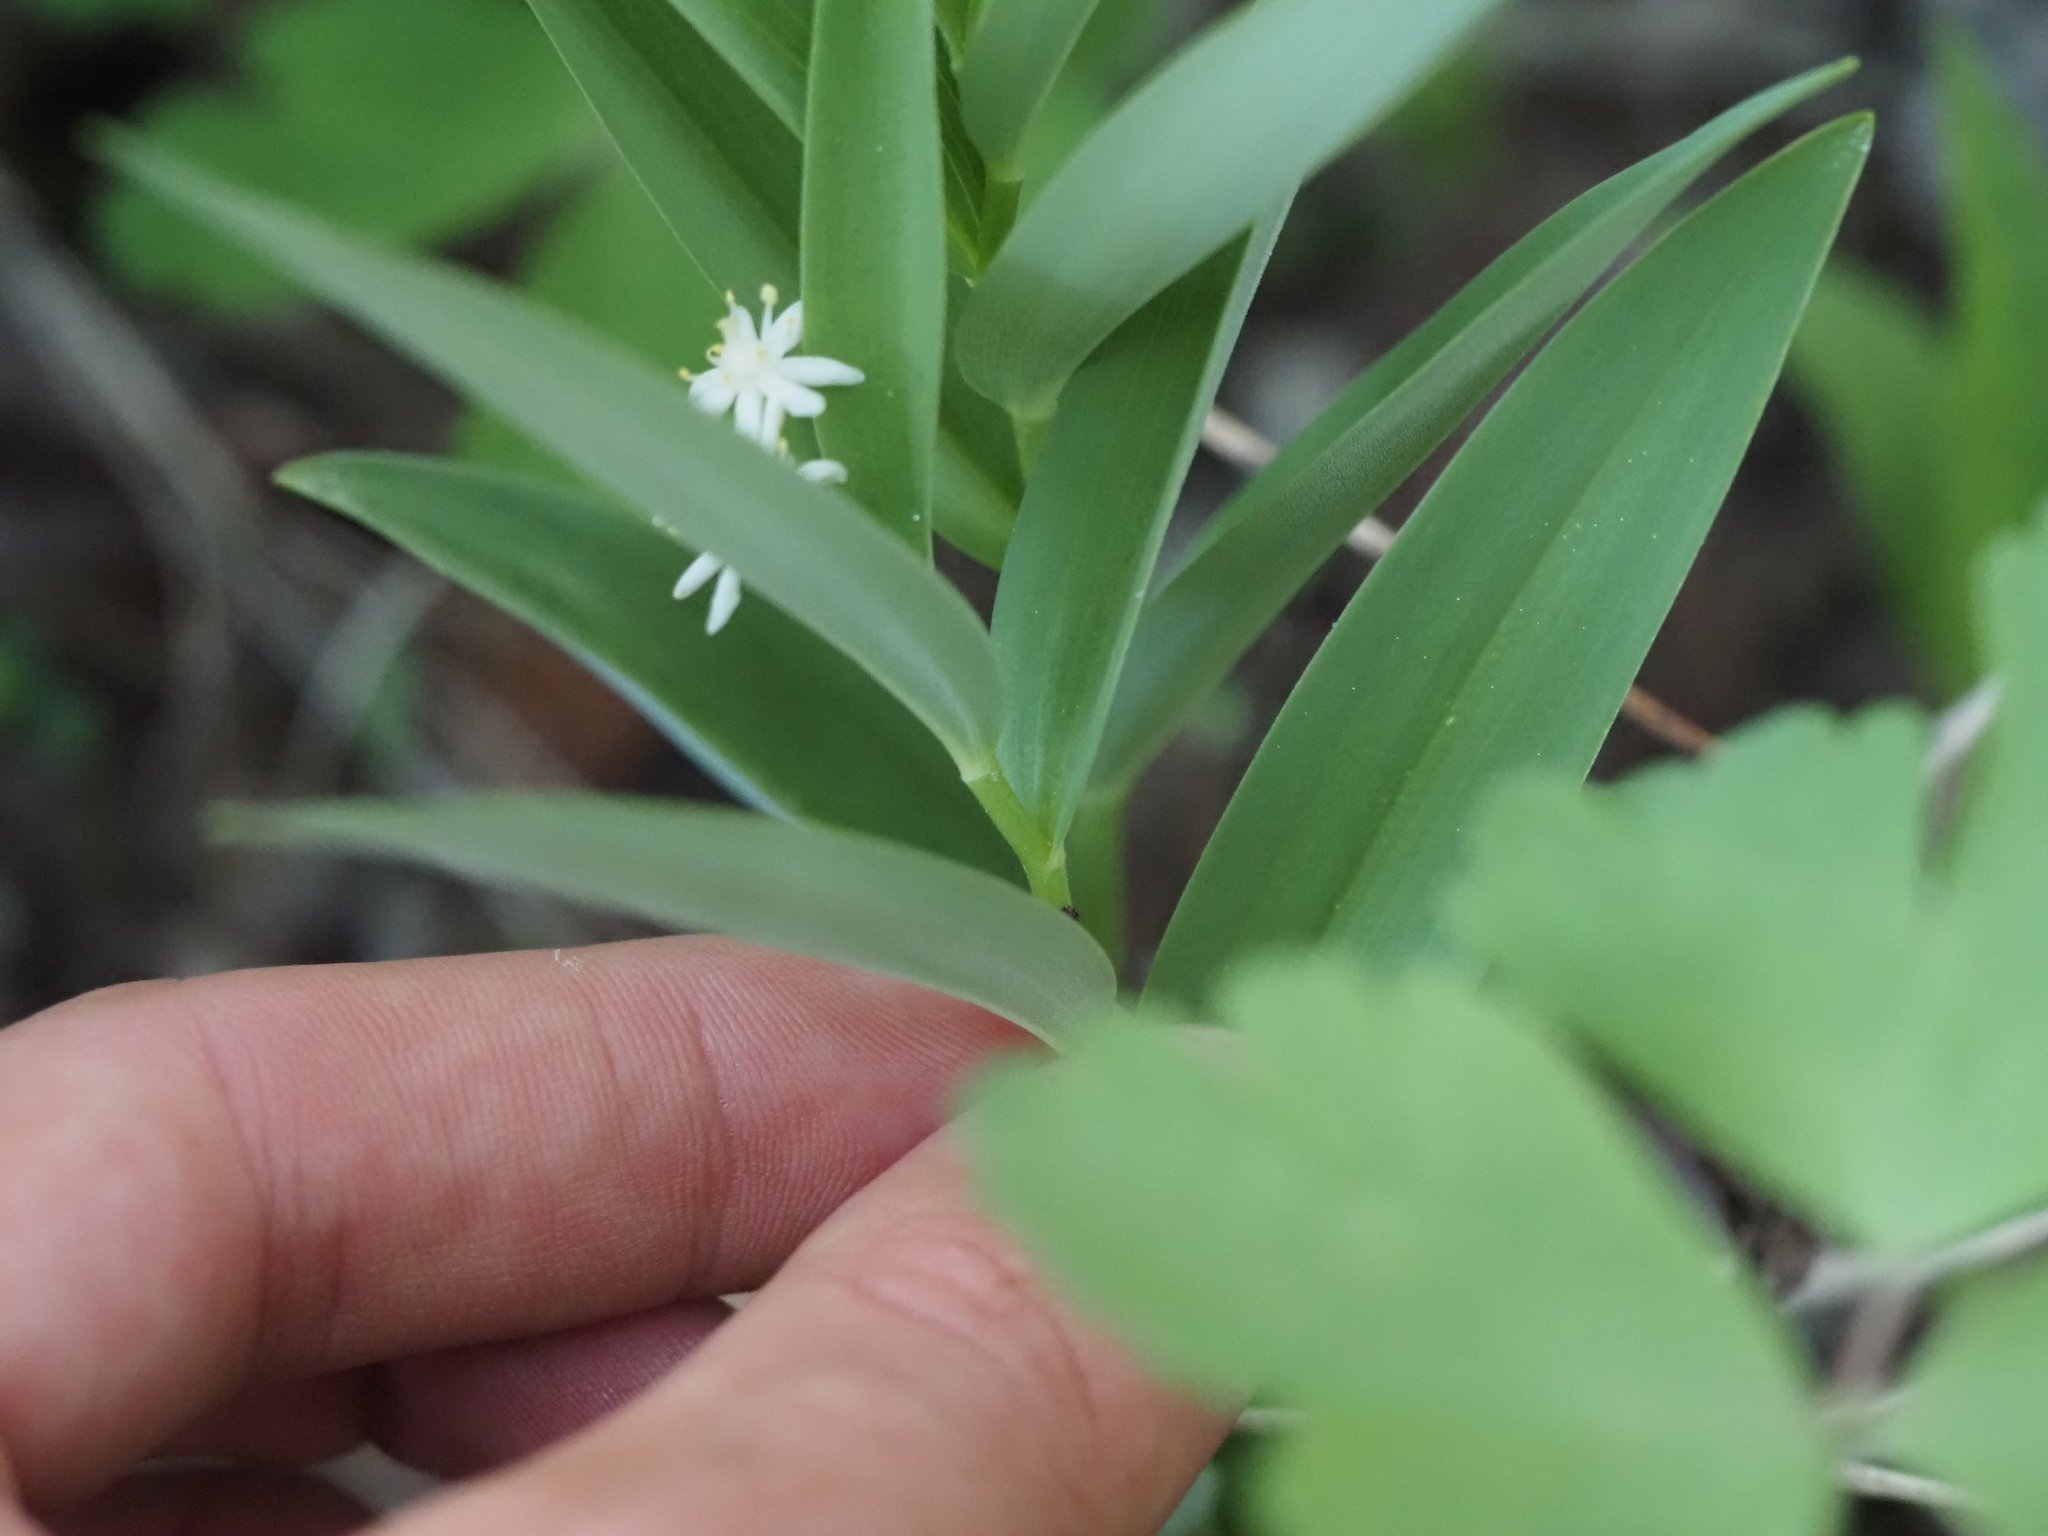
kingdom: Plantae
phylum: Tracheophyta
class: Liliopsida
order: Asparagales
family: Asparagaceae
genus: Maianthemum
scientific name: Maianthemum stellatum
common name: Little false solomon's seal
